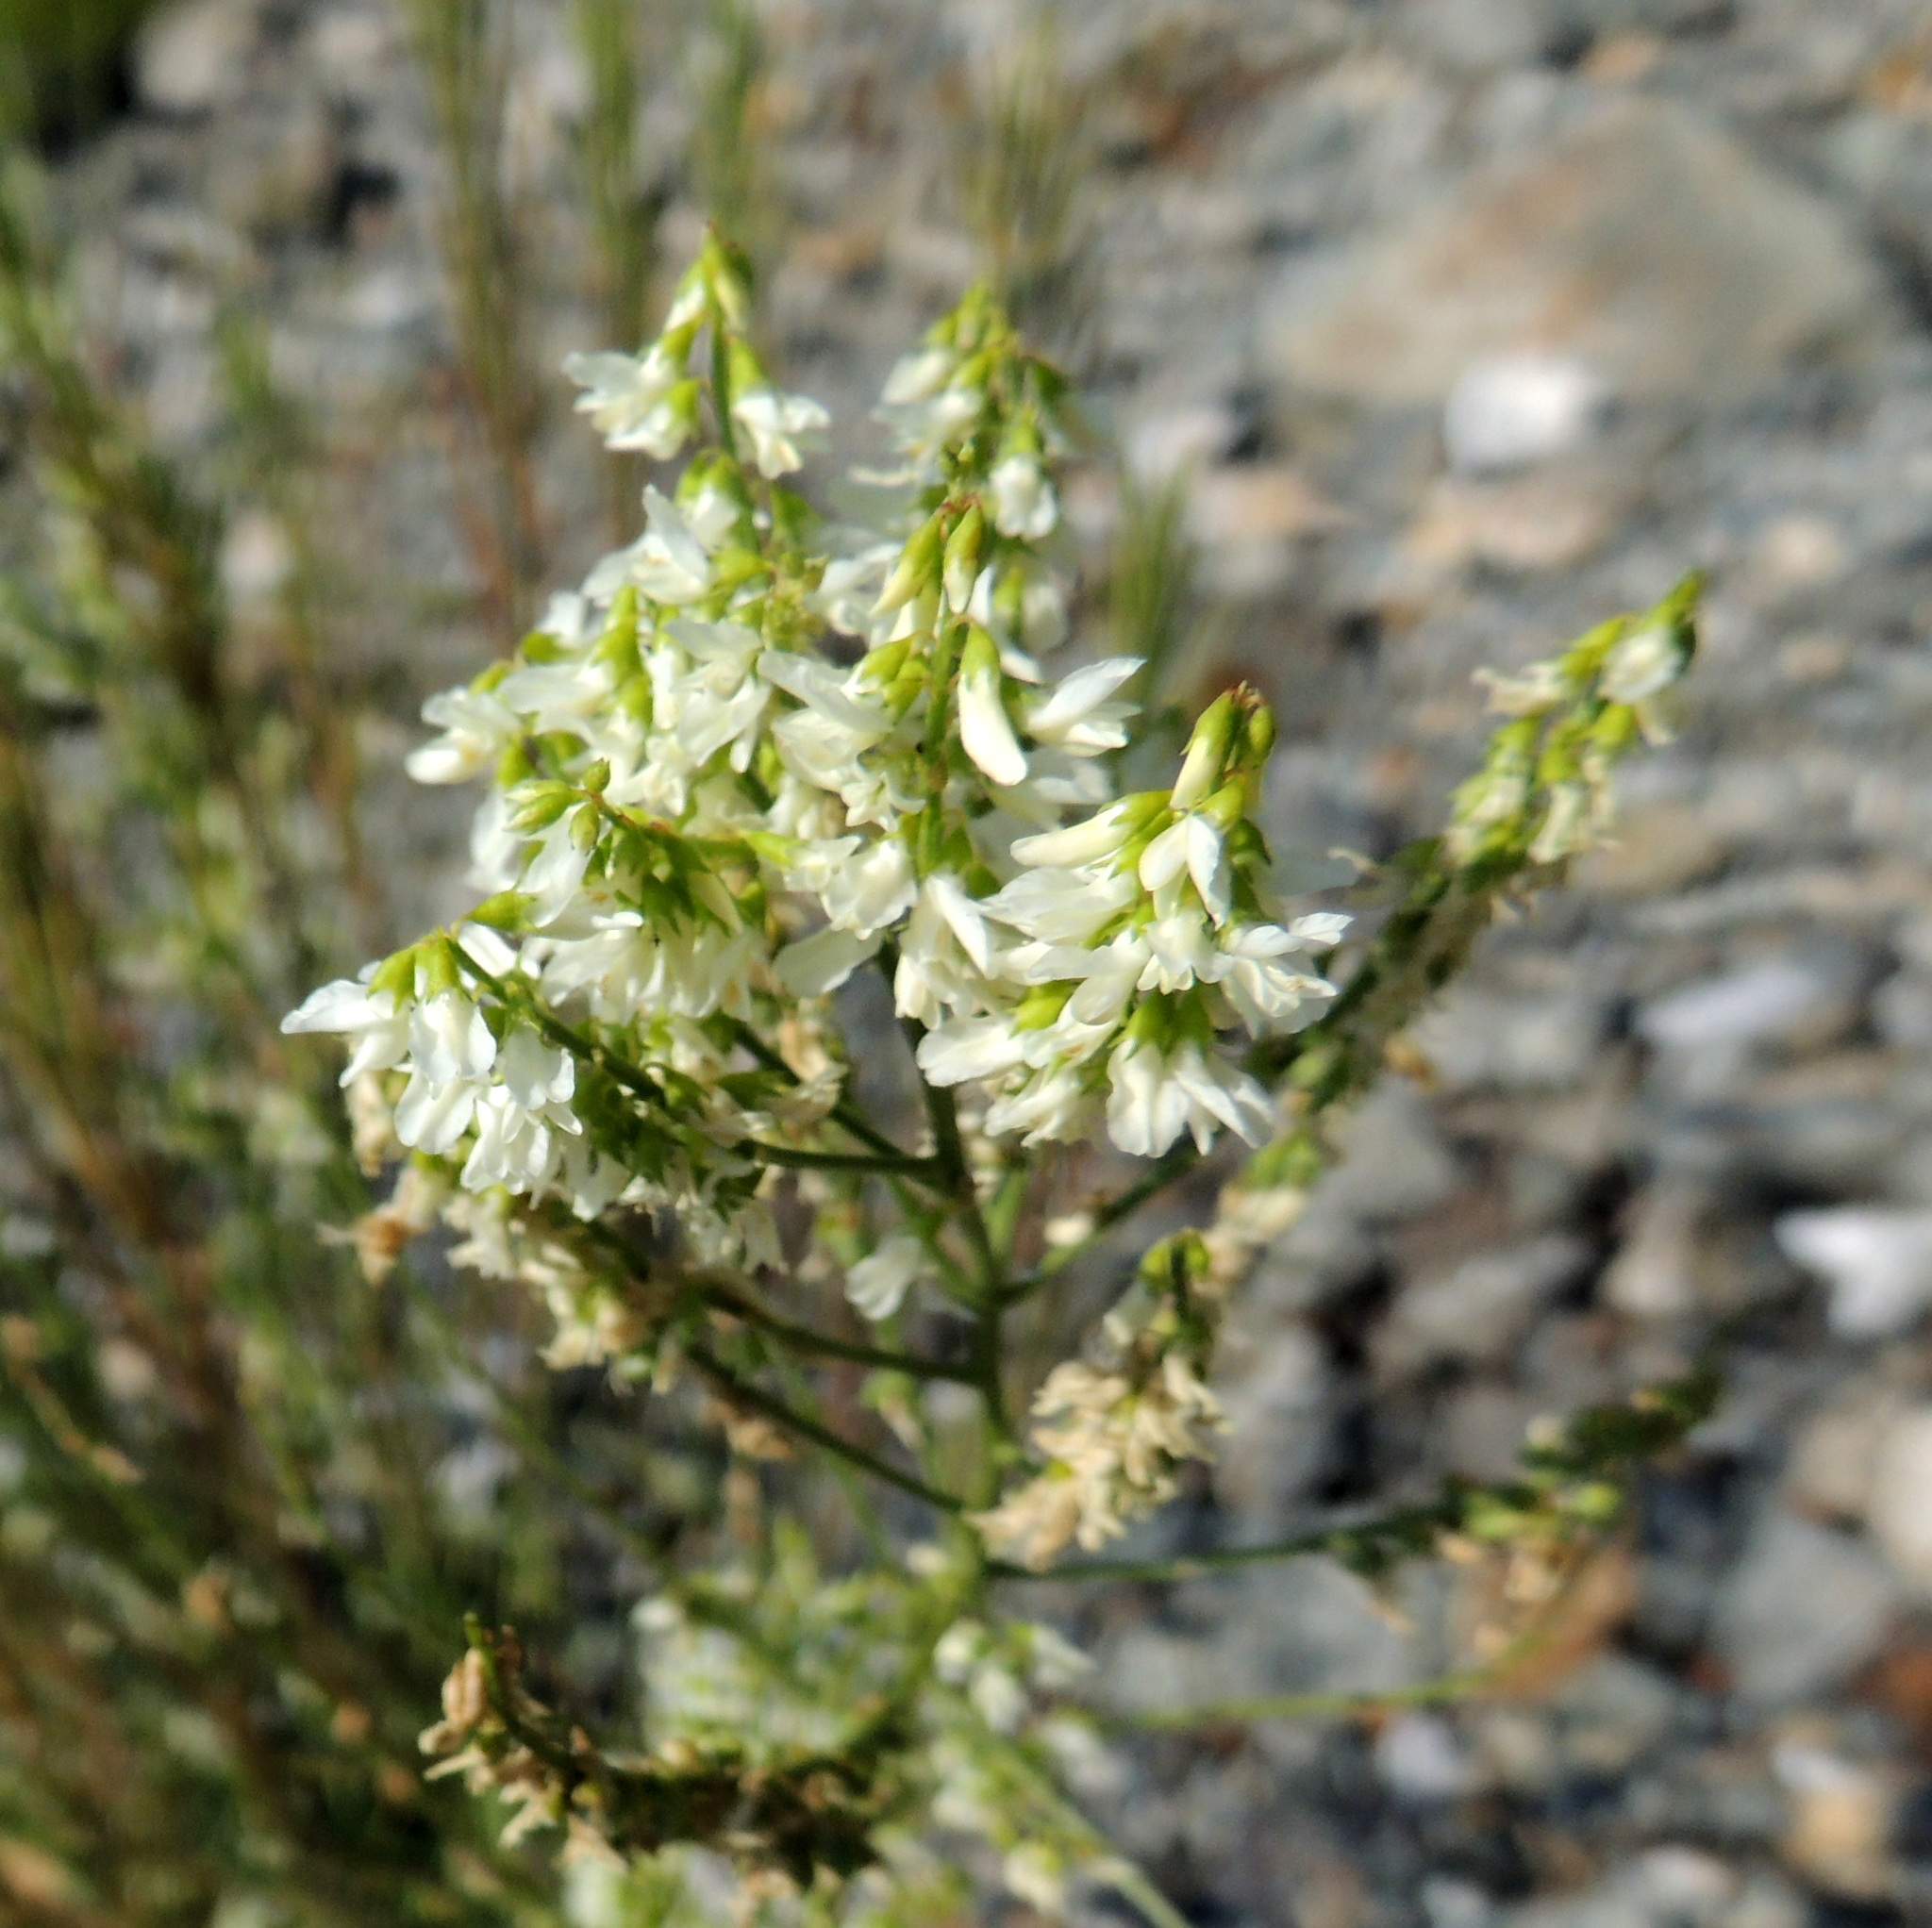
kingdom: Plantae
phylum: Tracheophyta
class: Magnoliopsida
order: Fabales
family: Fabaceae
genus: Melilotus
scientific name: Melilotus albus
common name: White melilot
